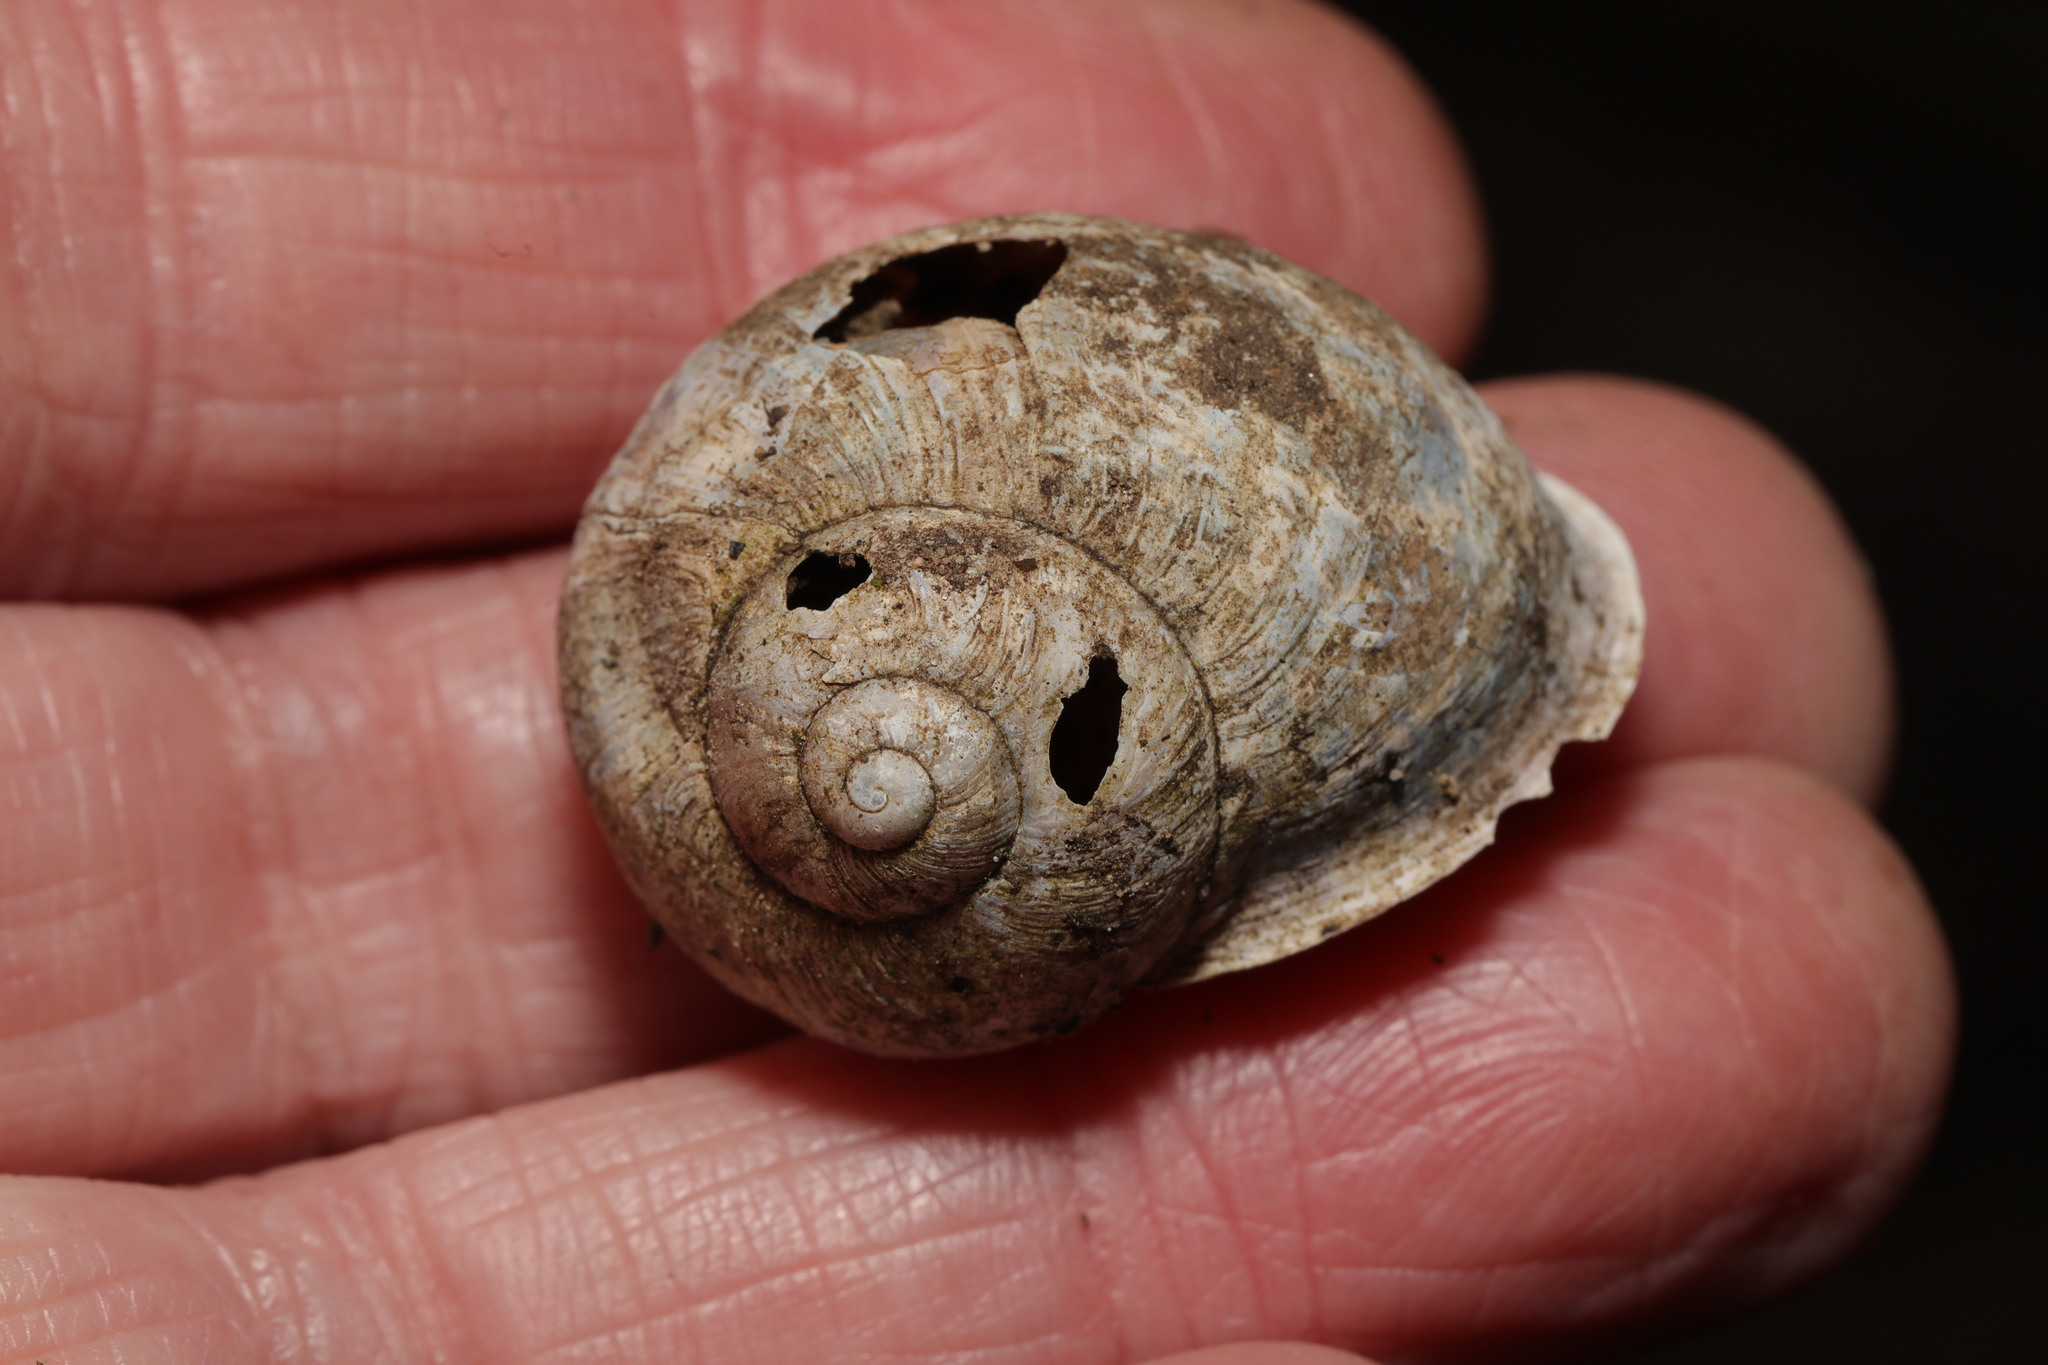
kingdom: Animalia
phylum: Mollusca
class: Gastropoda
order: Stylommatophora
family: Helicidae
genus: Cornu
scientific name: Cornu aspersum
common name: Brown garden snail
